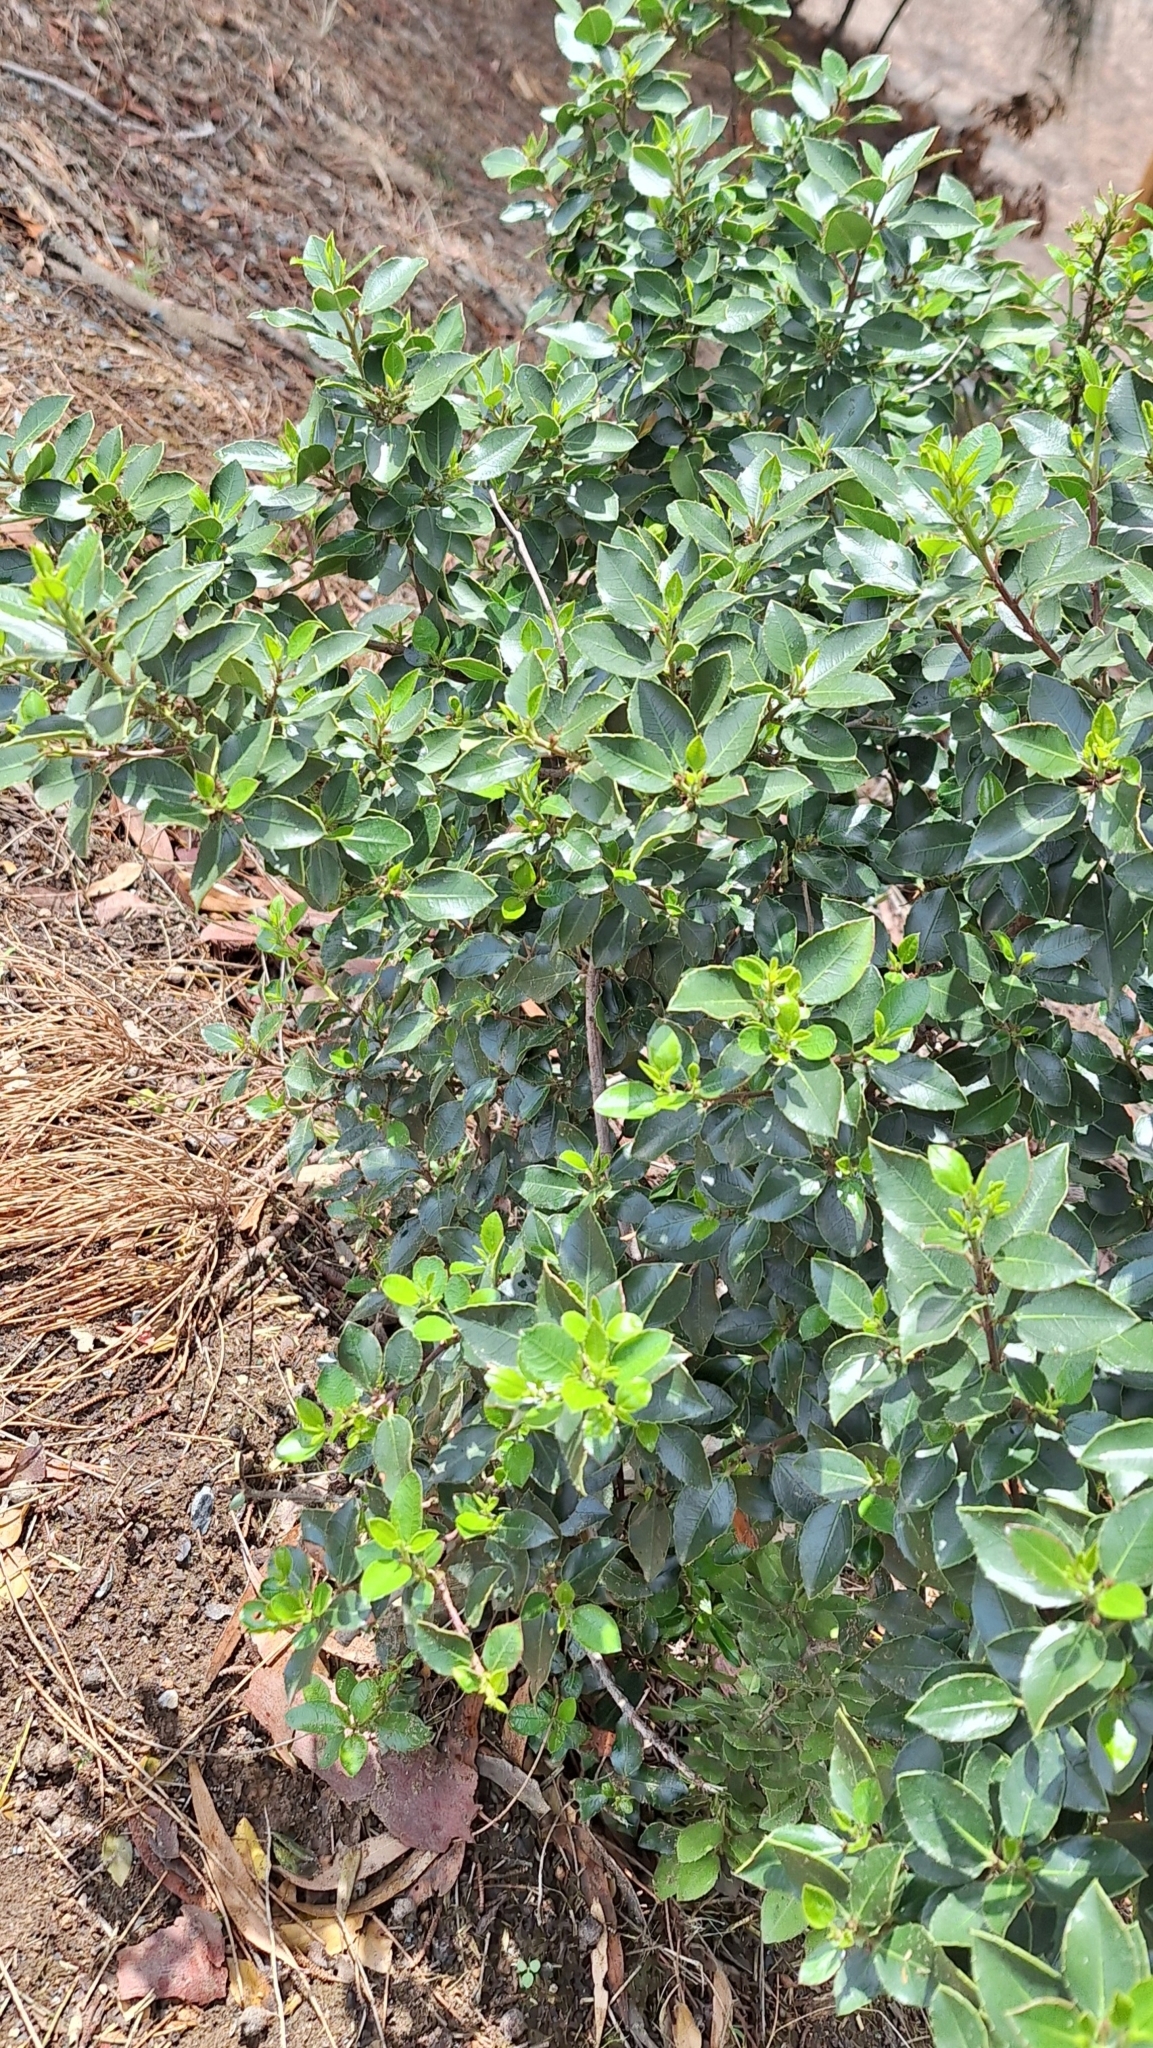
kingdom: Plantae
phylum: Tracheophyta
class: Magnoliopsida
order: Rosales
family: Rhamnaceae
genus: Rhamnus
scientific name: Rhamnus alaternus
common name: Mediterranean buckthorn
